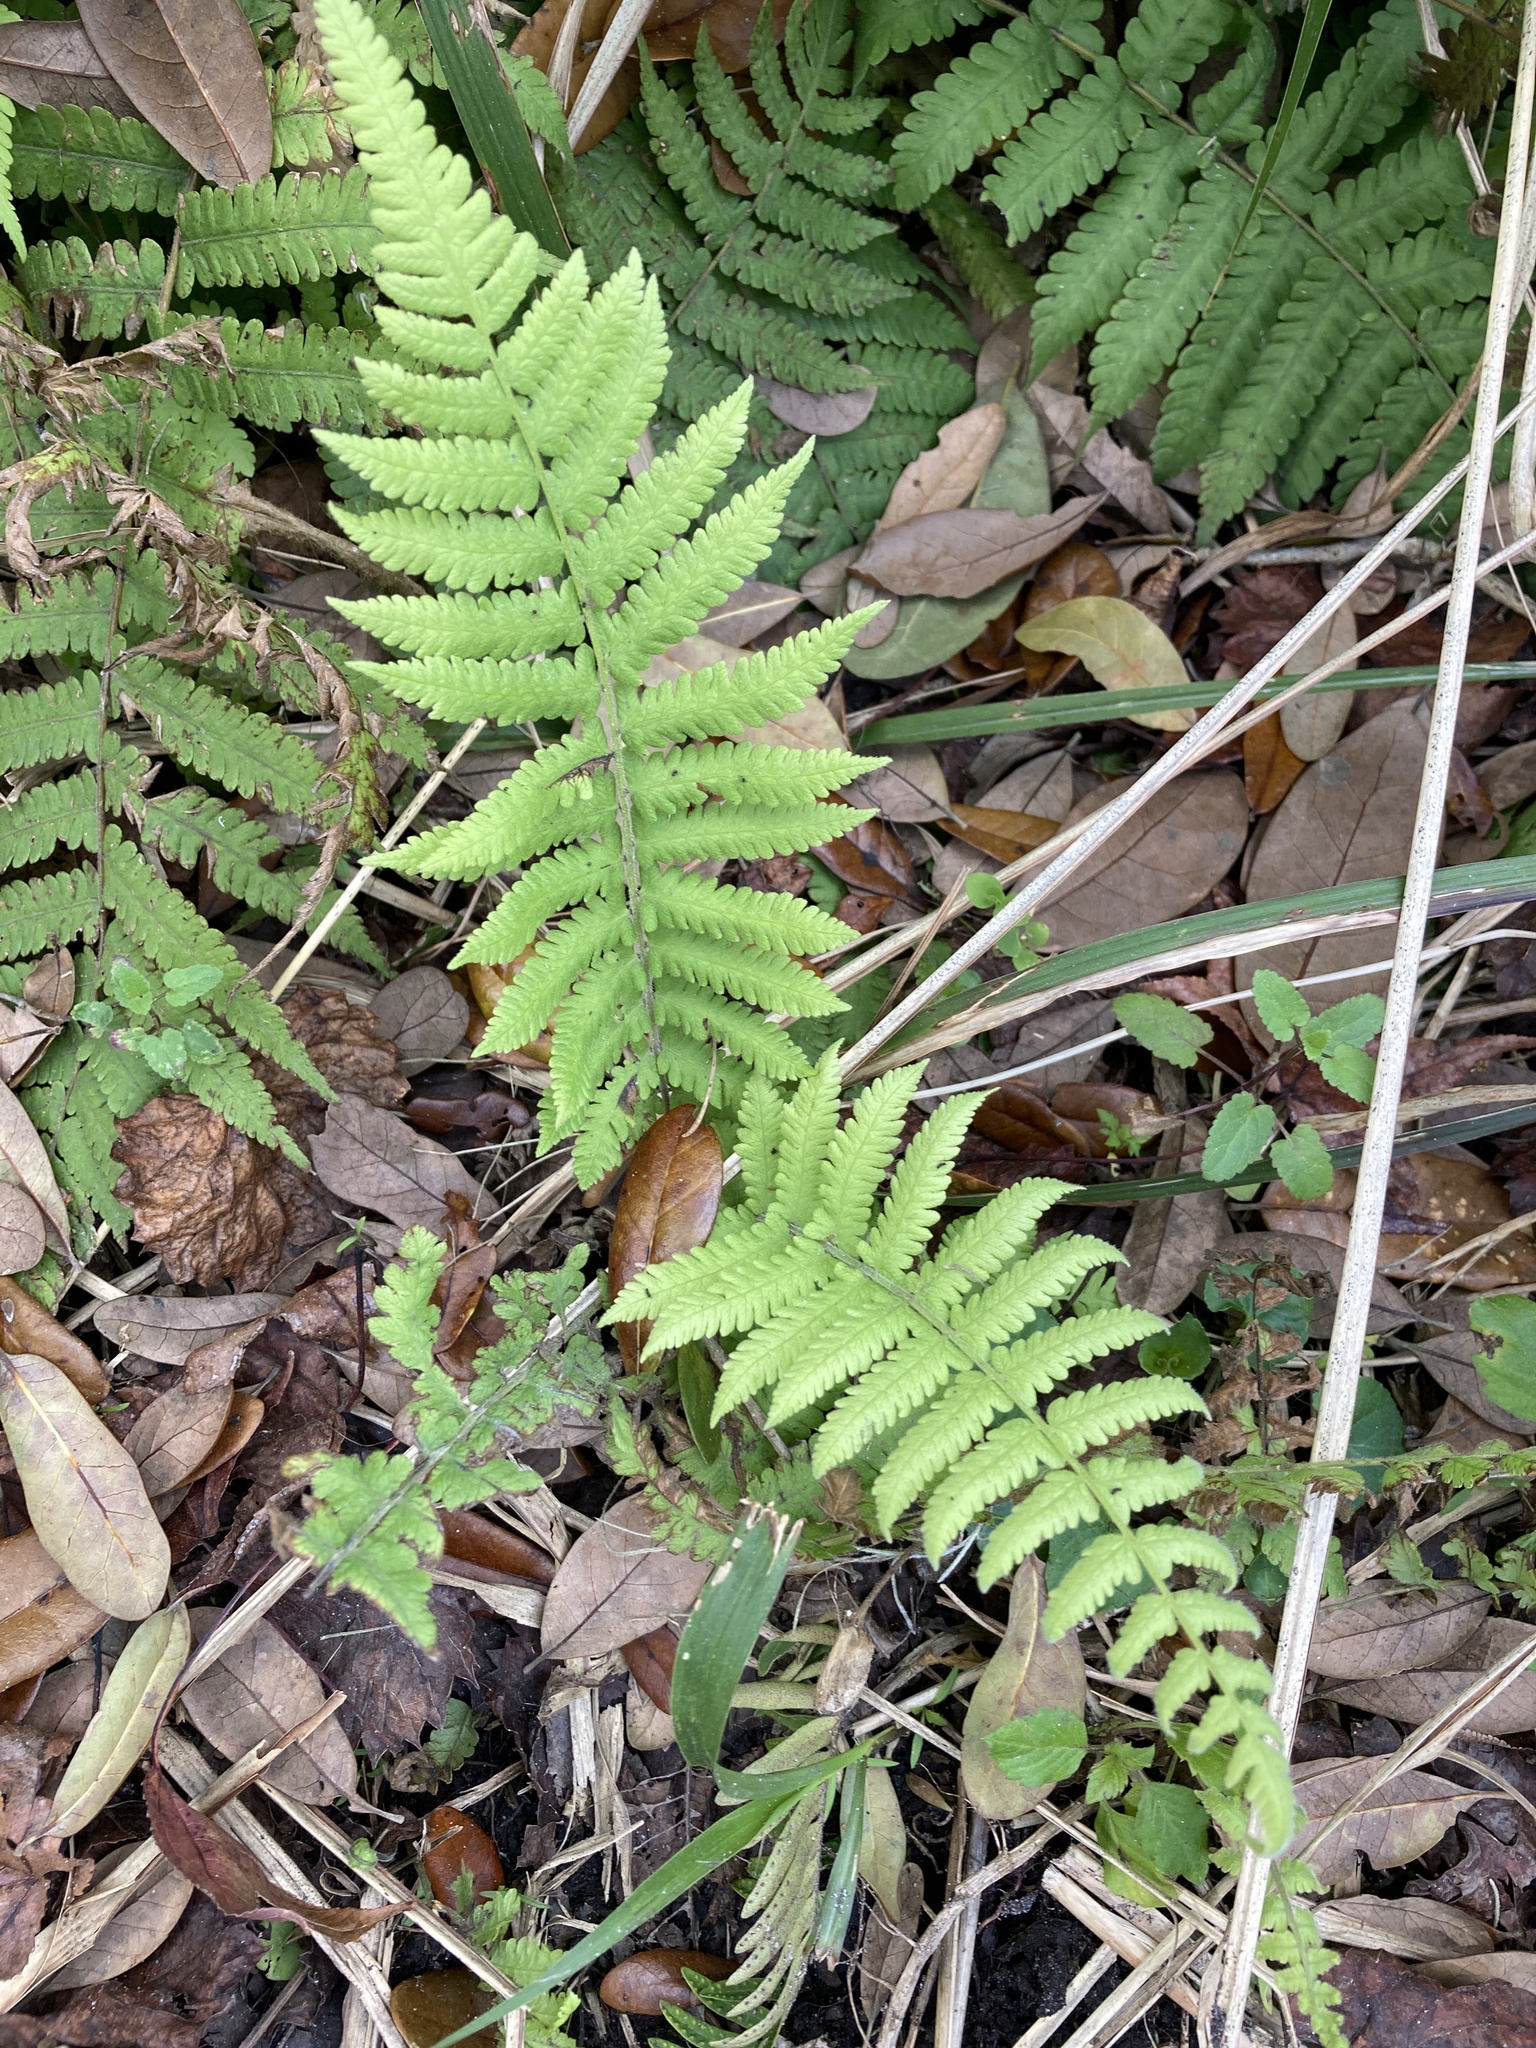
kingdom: Plantae
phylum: Tracheophyta
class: Polypodiopsida
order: Polypodiales
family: Thelypteridaceae
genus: Christella
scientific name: Christella dentata
